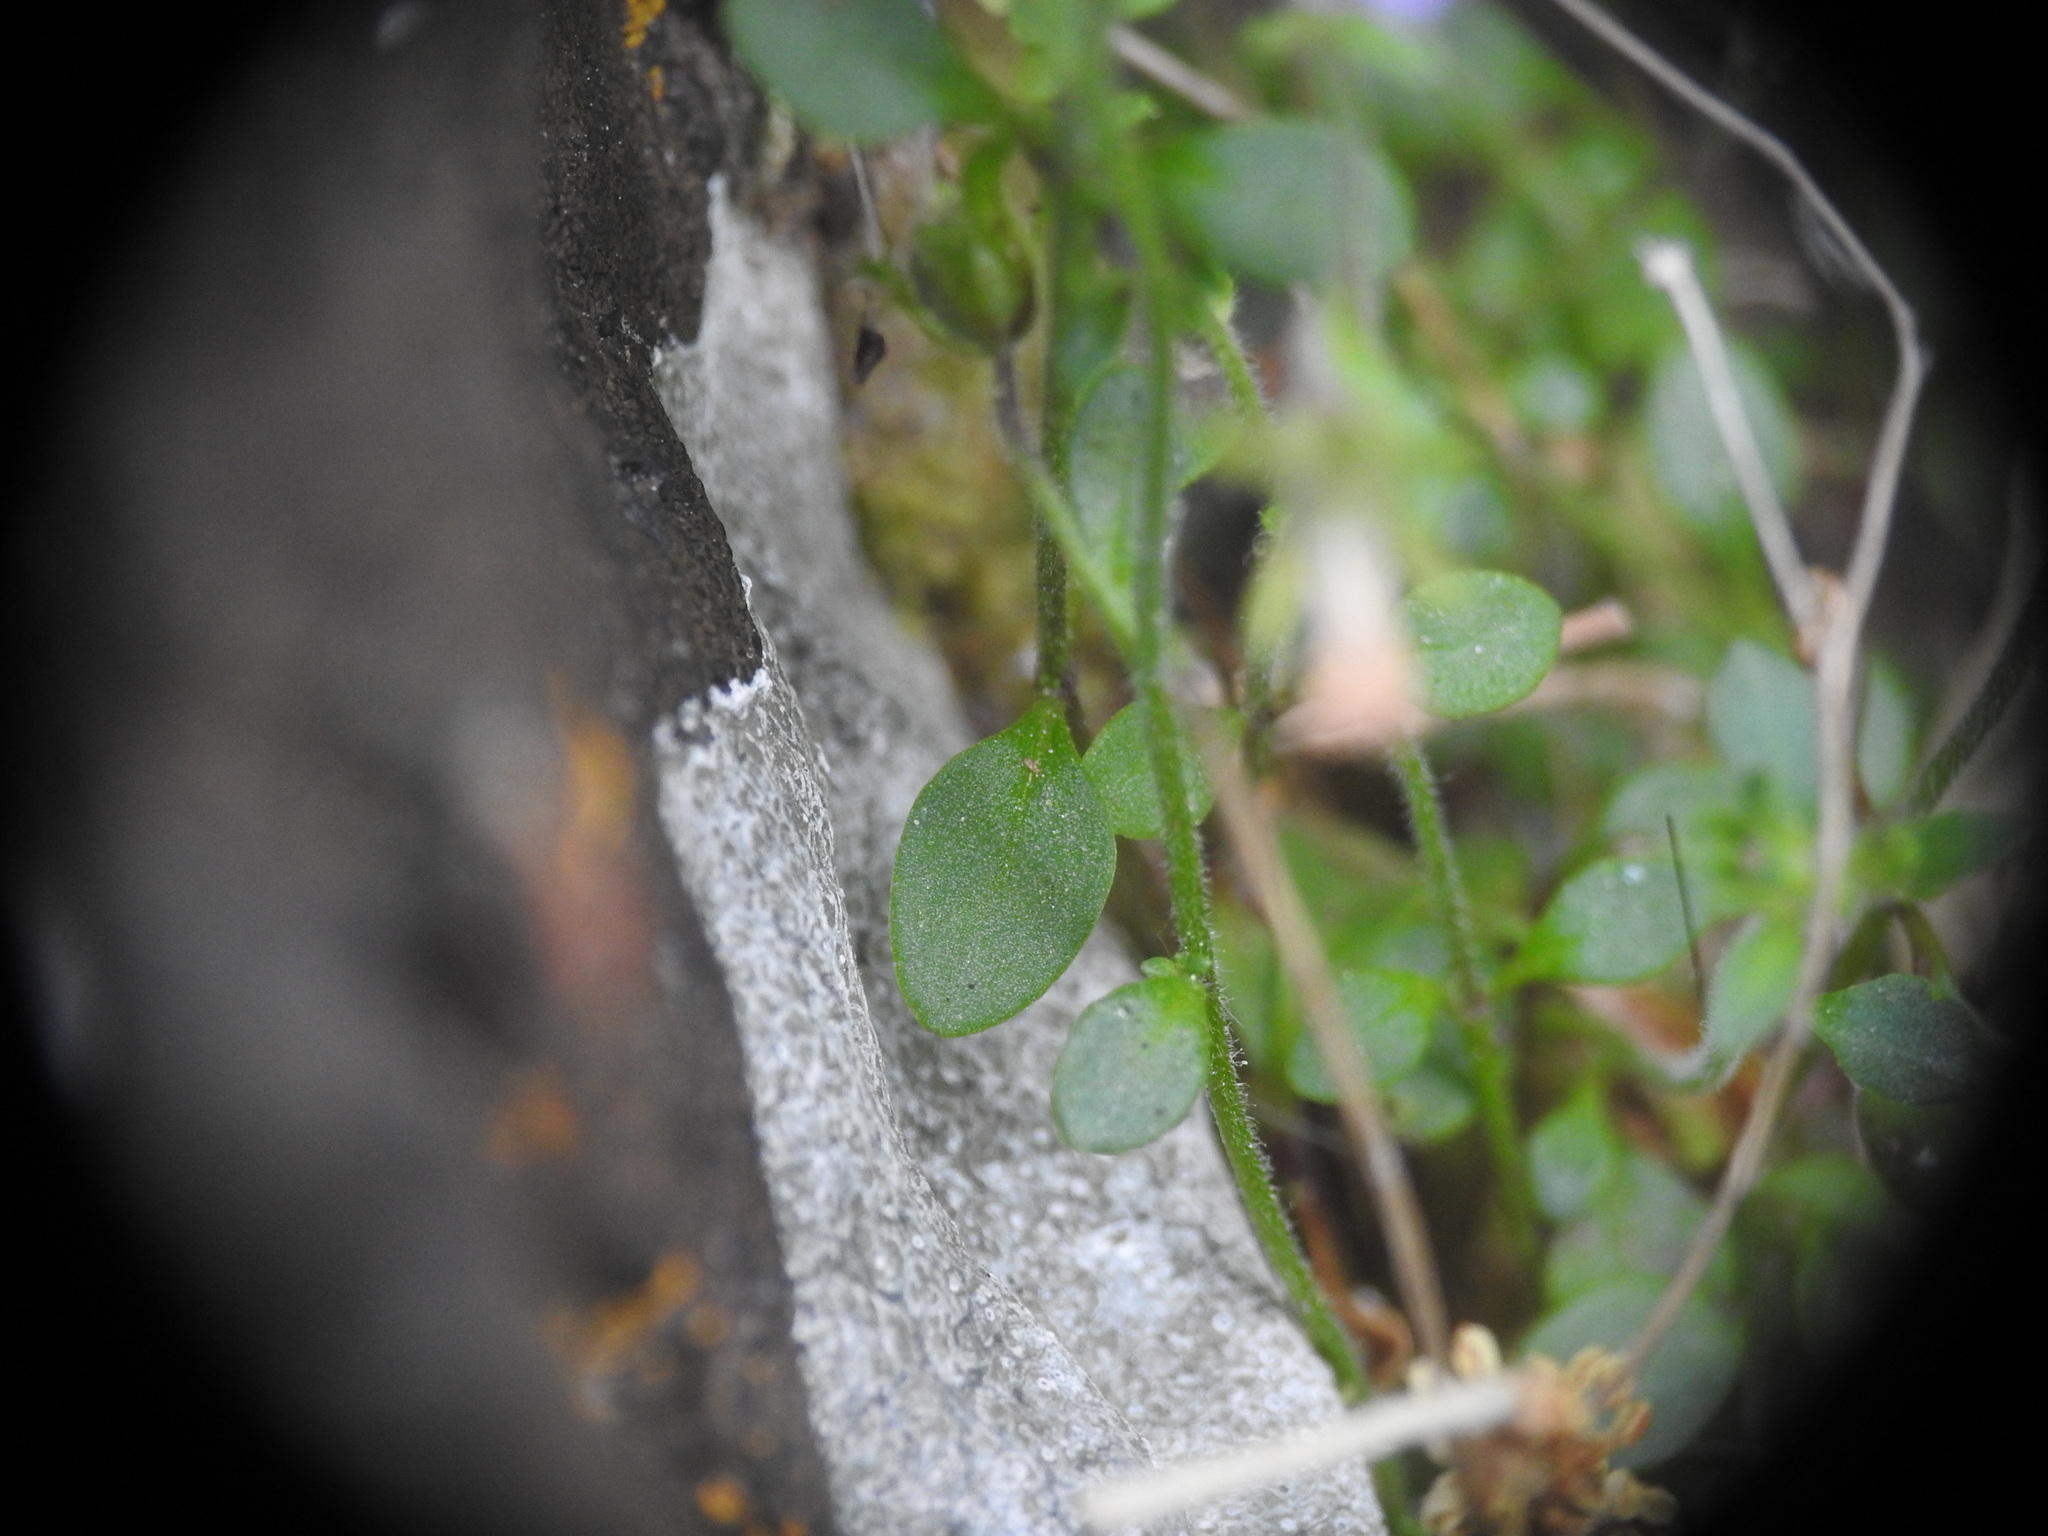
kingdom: Plantae
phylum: Tracheophyta
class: Magnoliopsida
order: Lamiales
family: Plantaginaceae
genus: Chaenorhinum
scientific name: Chaenorhinum origanifolium
